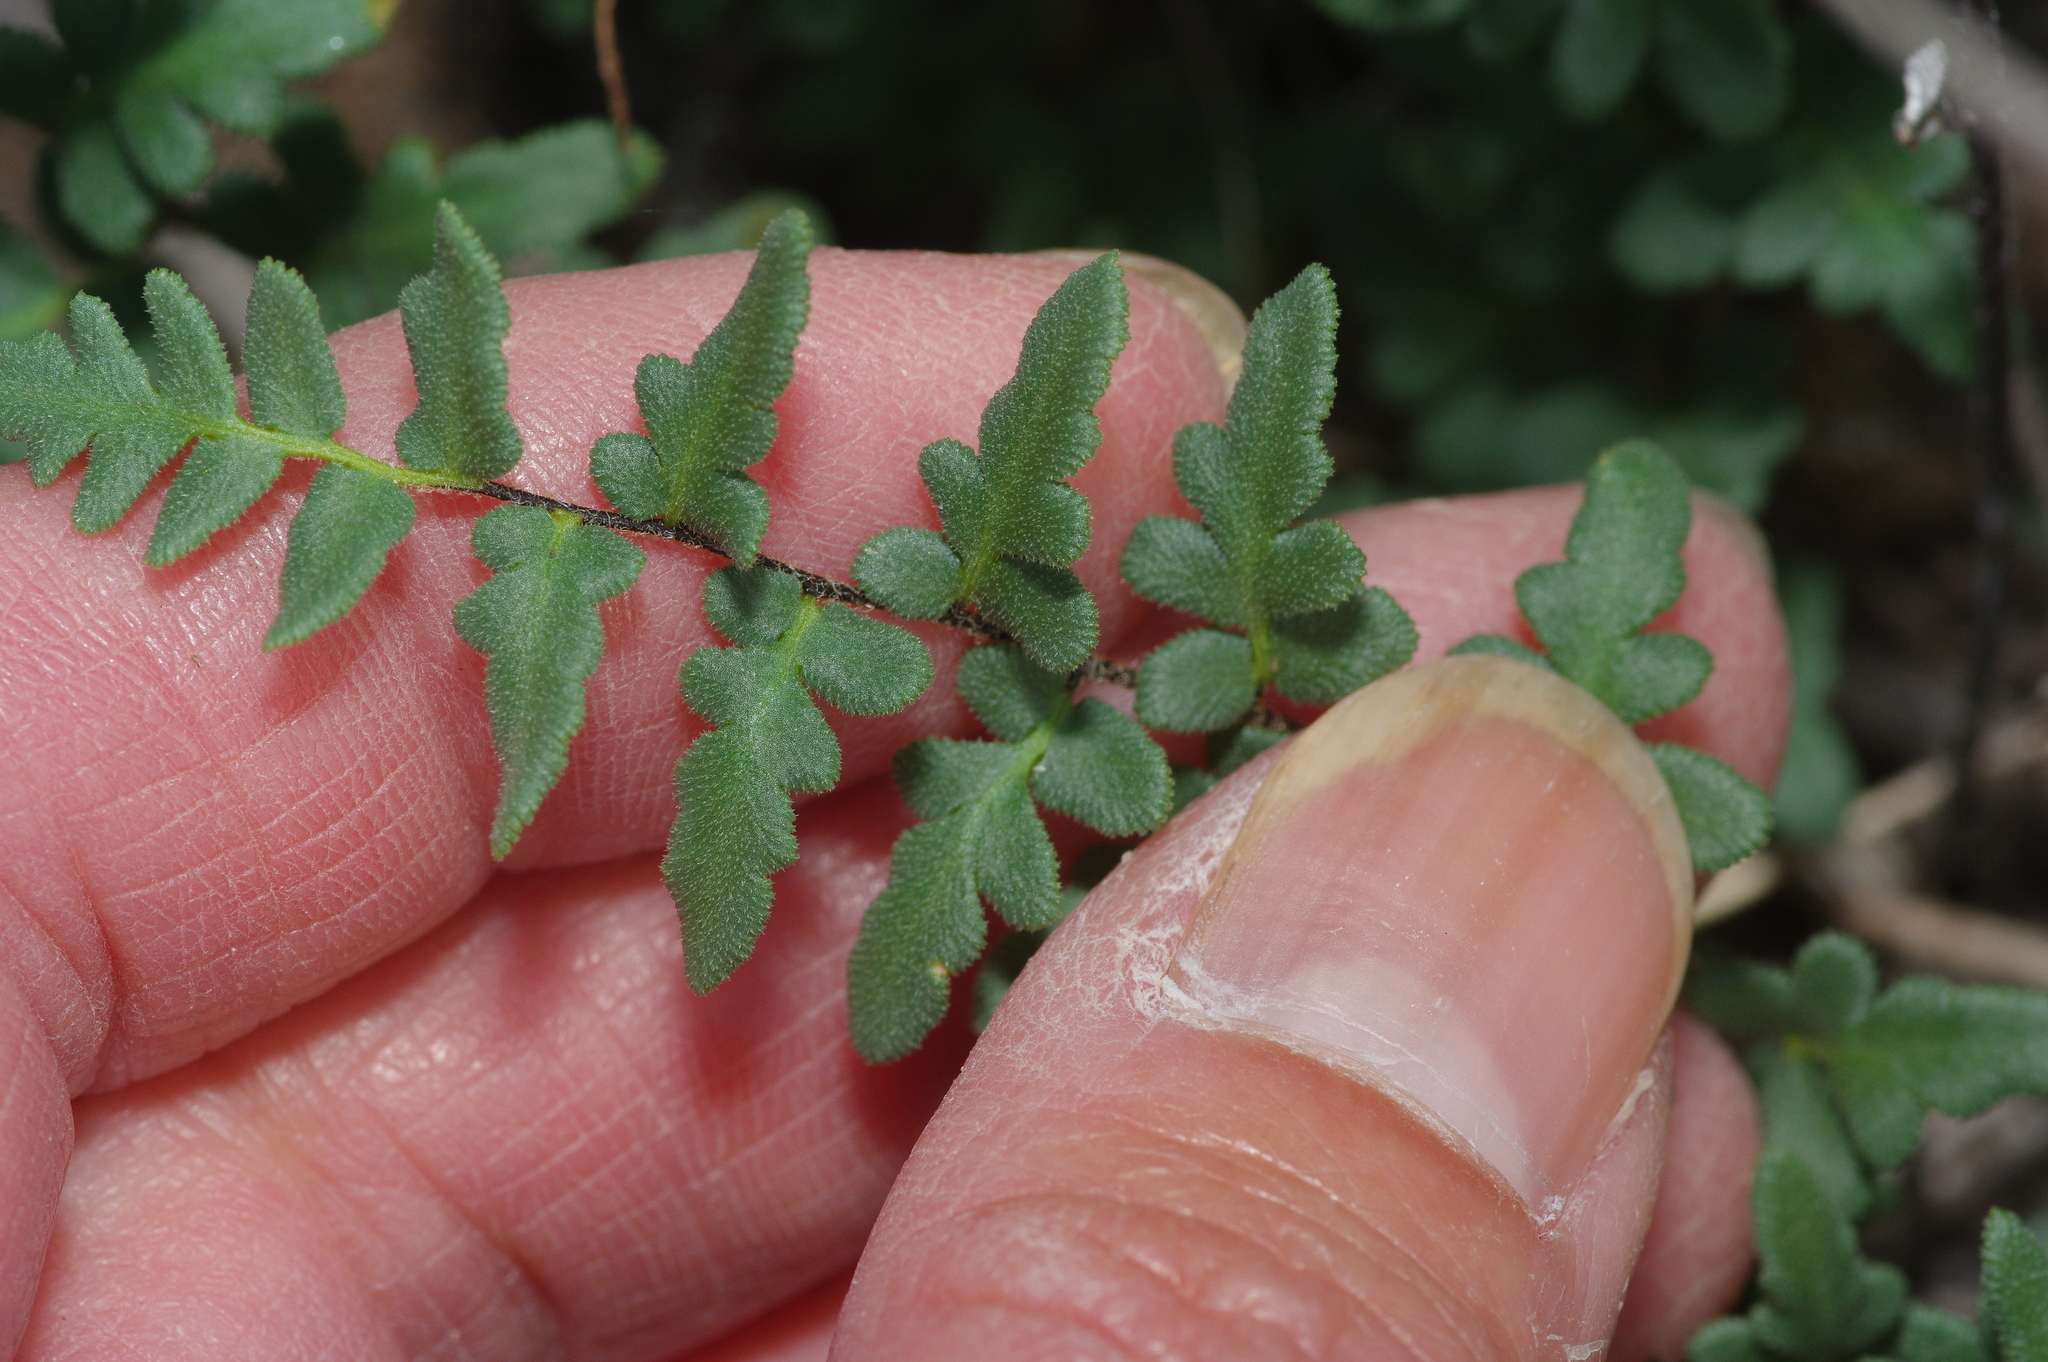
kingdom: Plantae
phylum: Tracheophyta
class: Polypodiopsida
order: Polypodiales
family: Pteridaceae
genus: Myriopteris
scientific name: Myriopteris scabra
